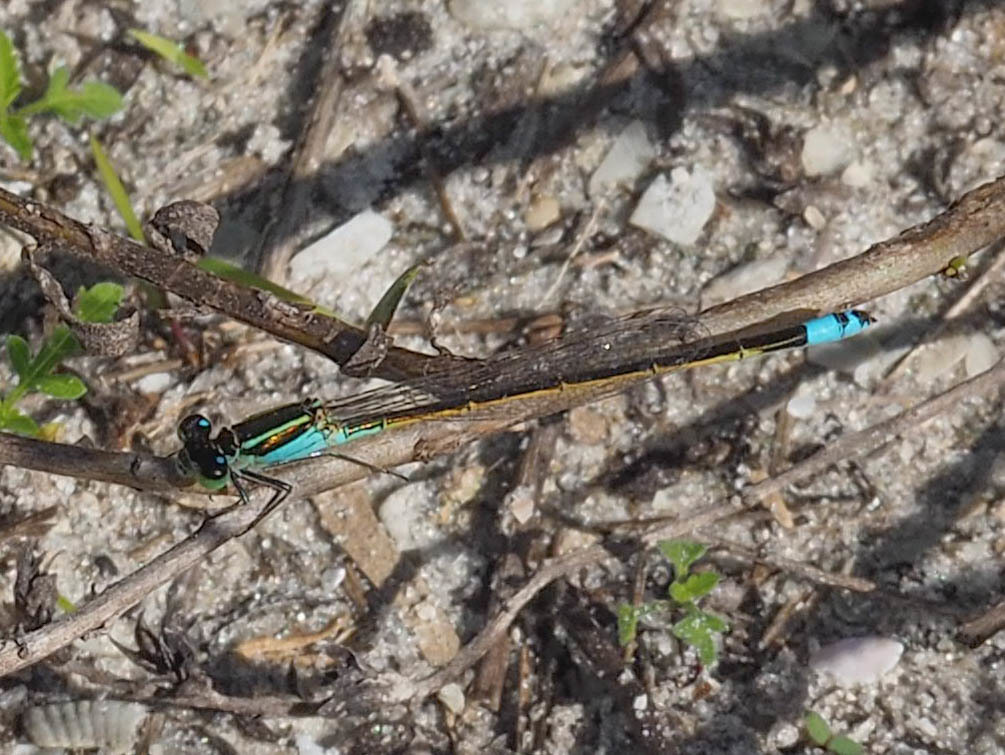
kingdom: Animalia
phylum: Arthropoda
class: Insecta
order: Odonata
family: Coenagrionidae
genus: Ischnura
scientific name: Ischnura ramburii
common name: Rambur's forktail
